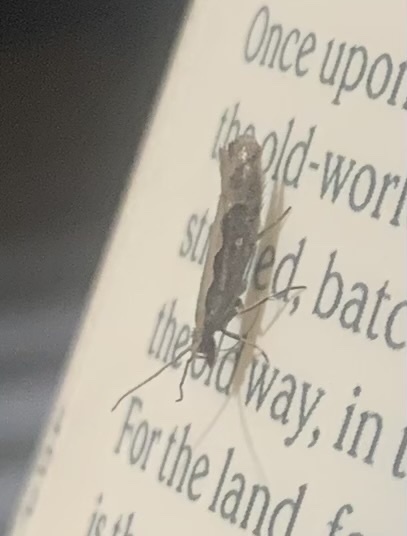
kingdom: Animalia
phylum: Arthropoda
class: Insecta
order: Lepidoptera
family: Plutellidae
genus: Plutella
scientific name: Plutella xylostella
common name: Diamond-back moth
